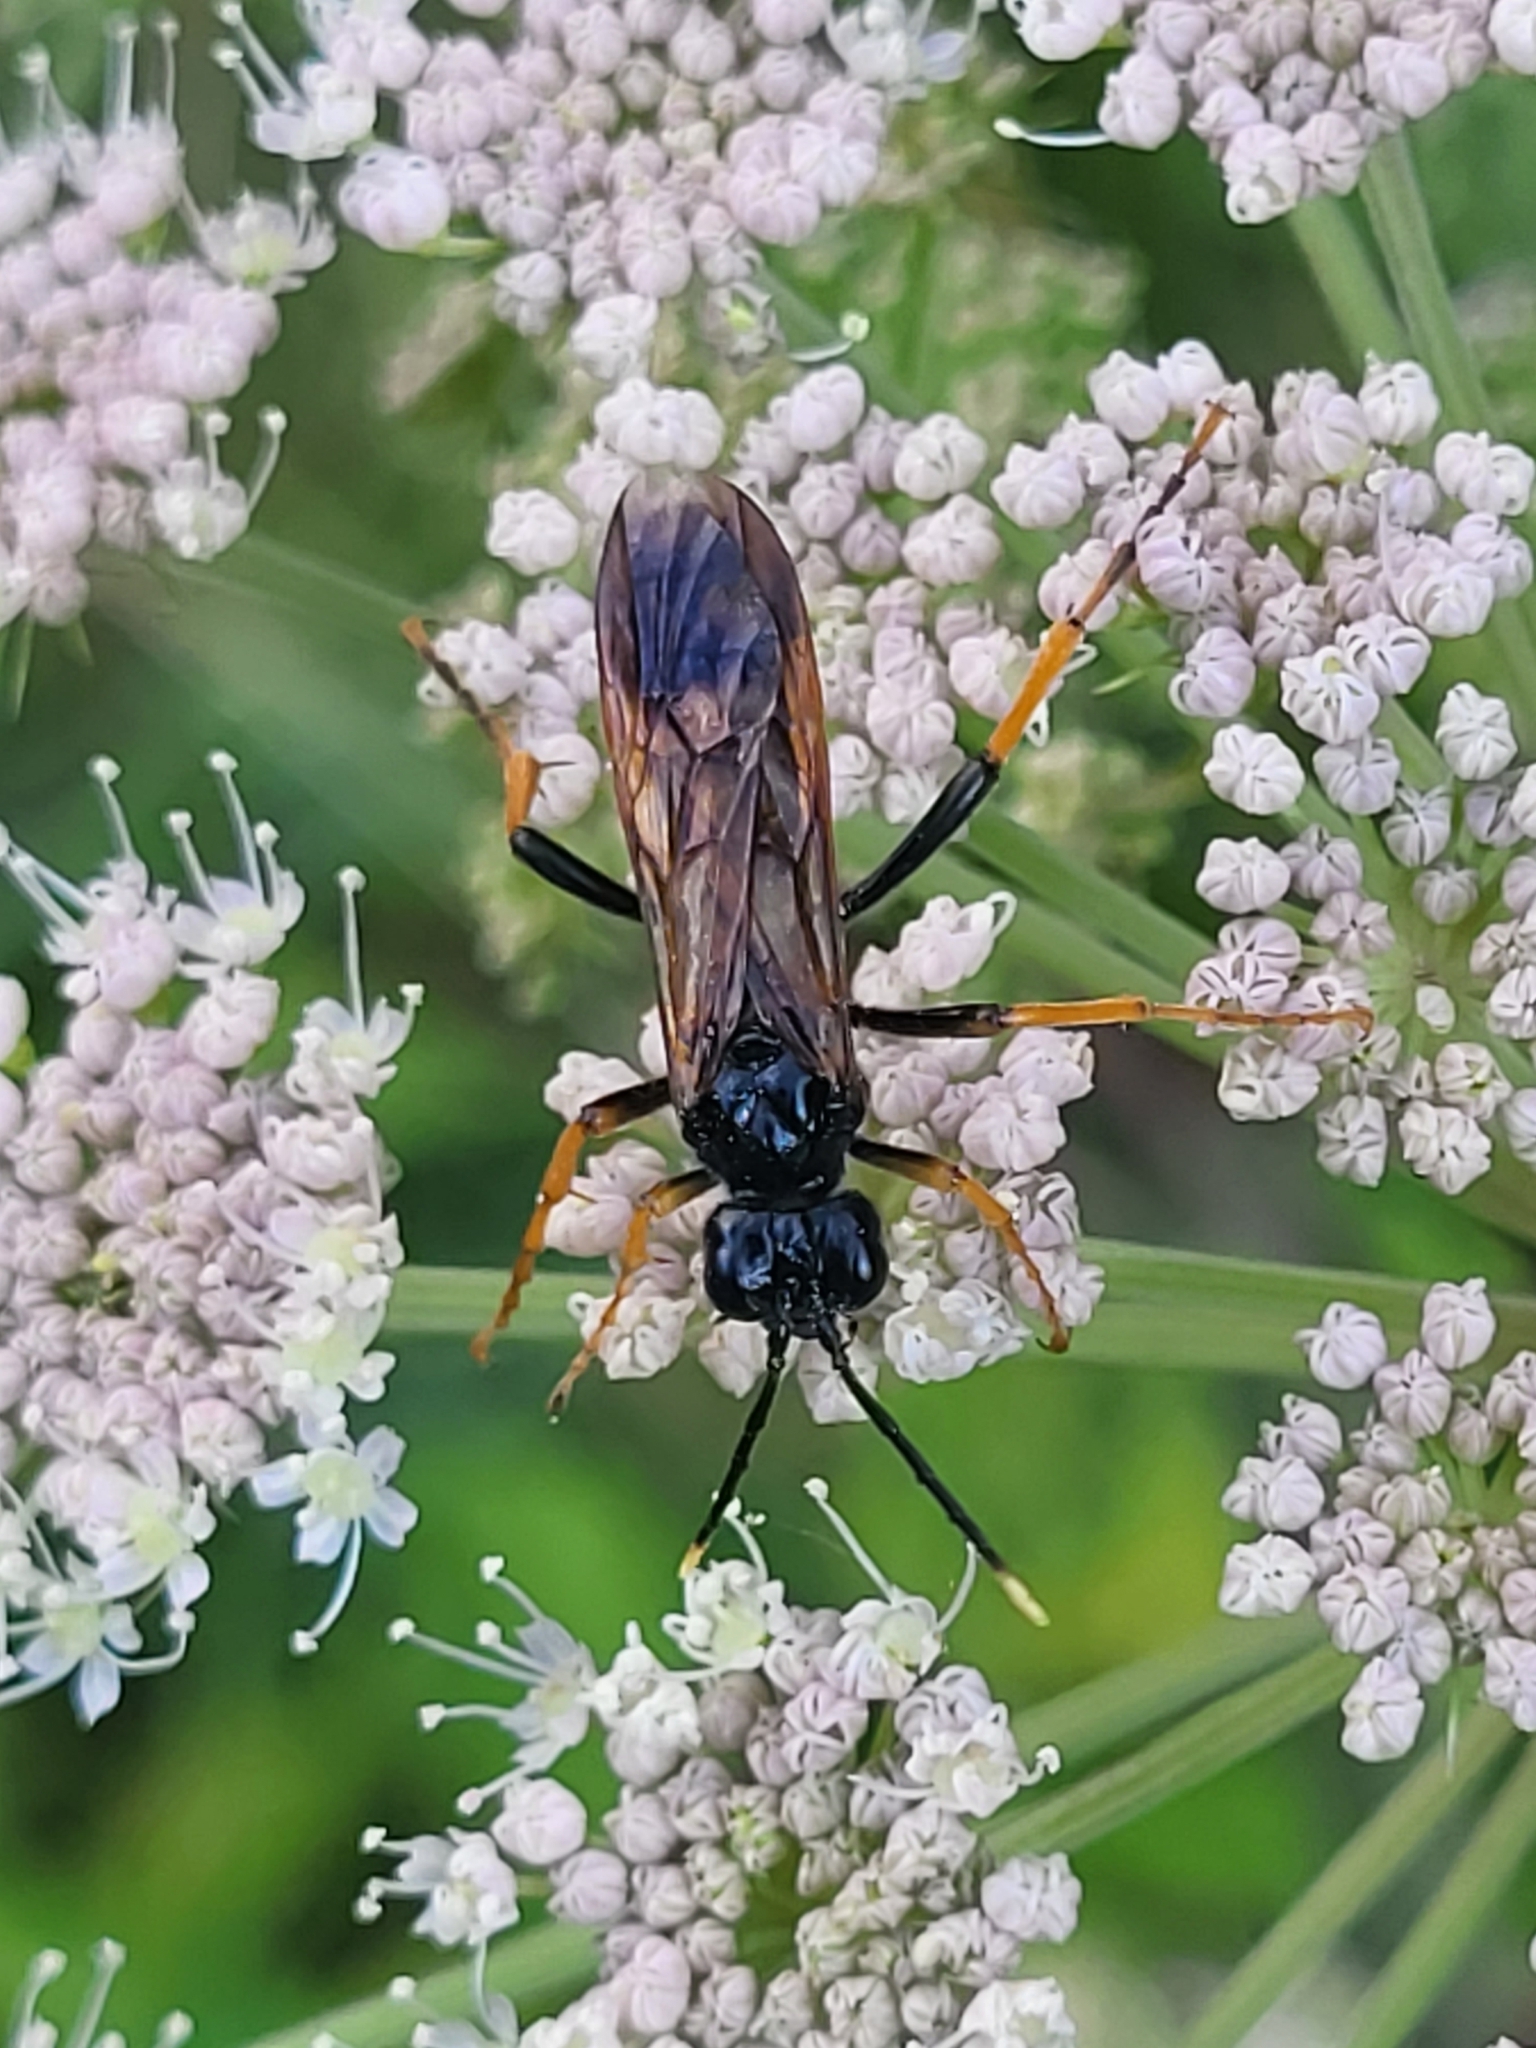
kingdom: Animalia
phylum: Arthropoda
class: Insecta
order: Hymenoptera
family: Tenthredinidae
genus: Tenthredo
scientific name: Tenthredo crassa
